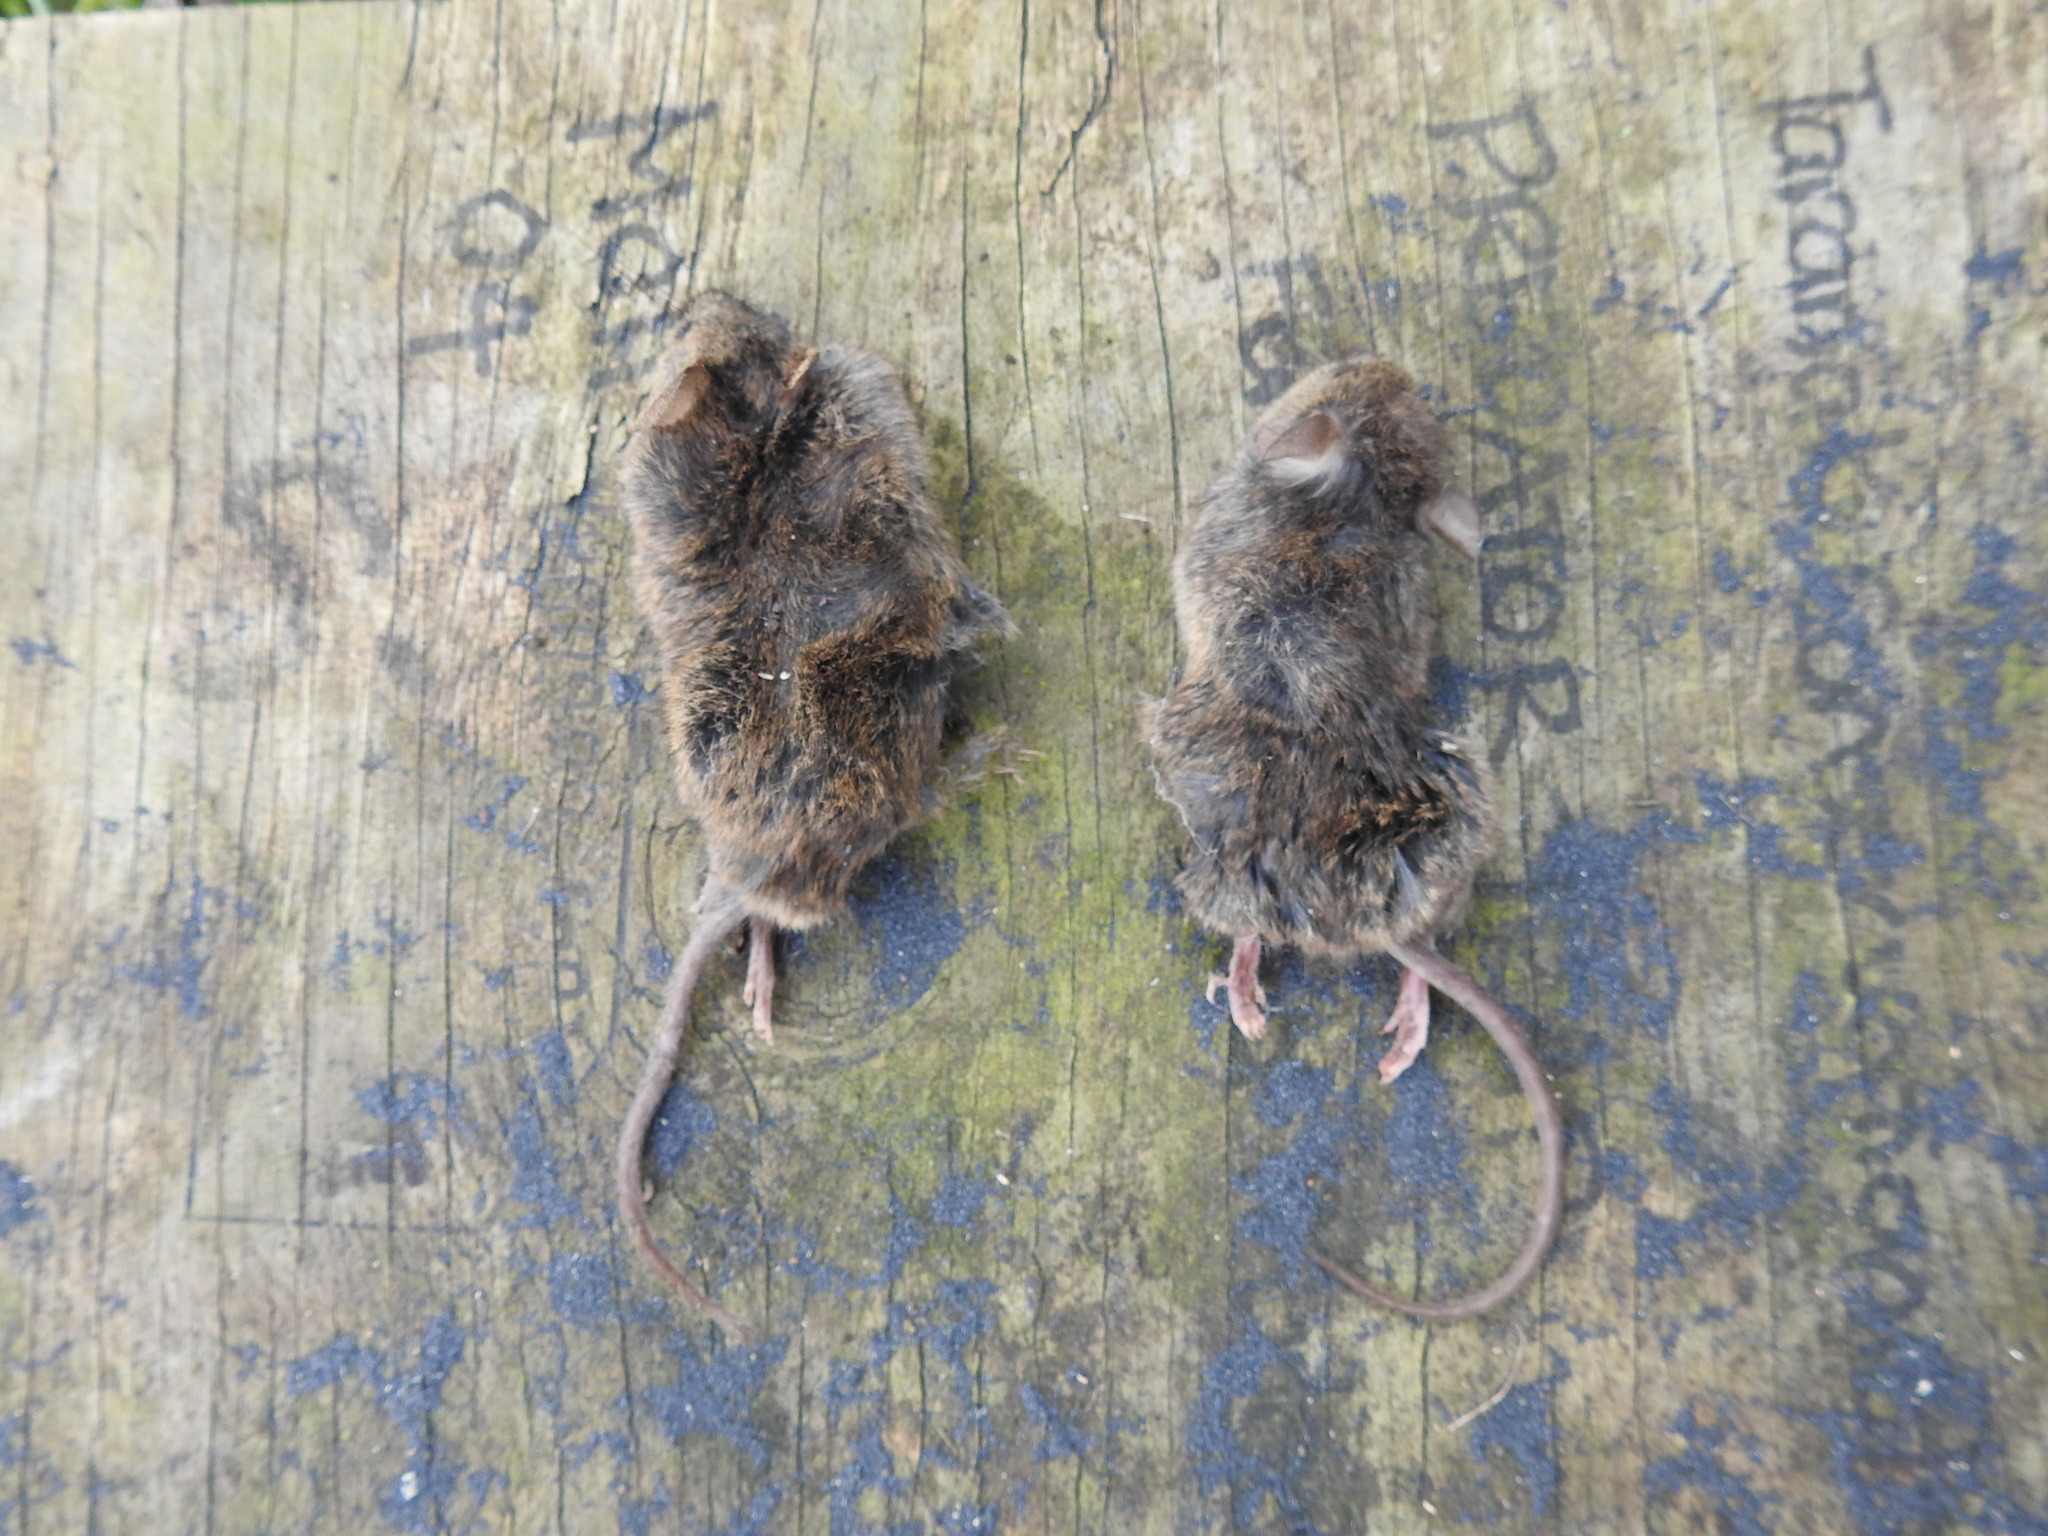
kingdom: Animalia
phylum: Chordata
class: Mammalia
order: Rodentia
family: Muridae
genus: Mus
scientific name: Mus musculus
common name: House mouse
